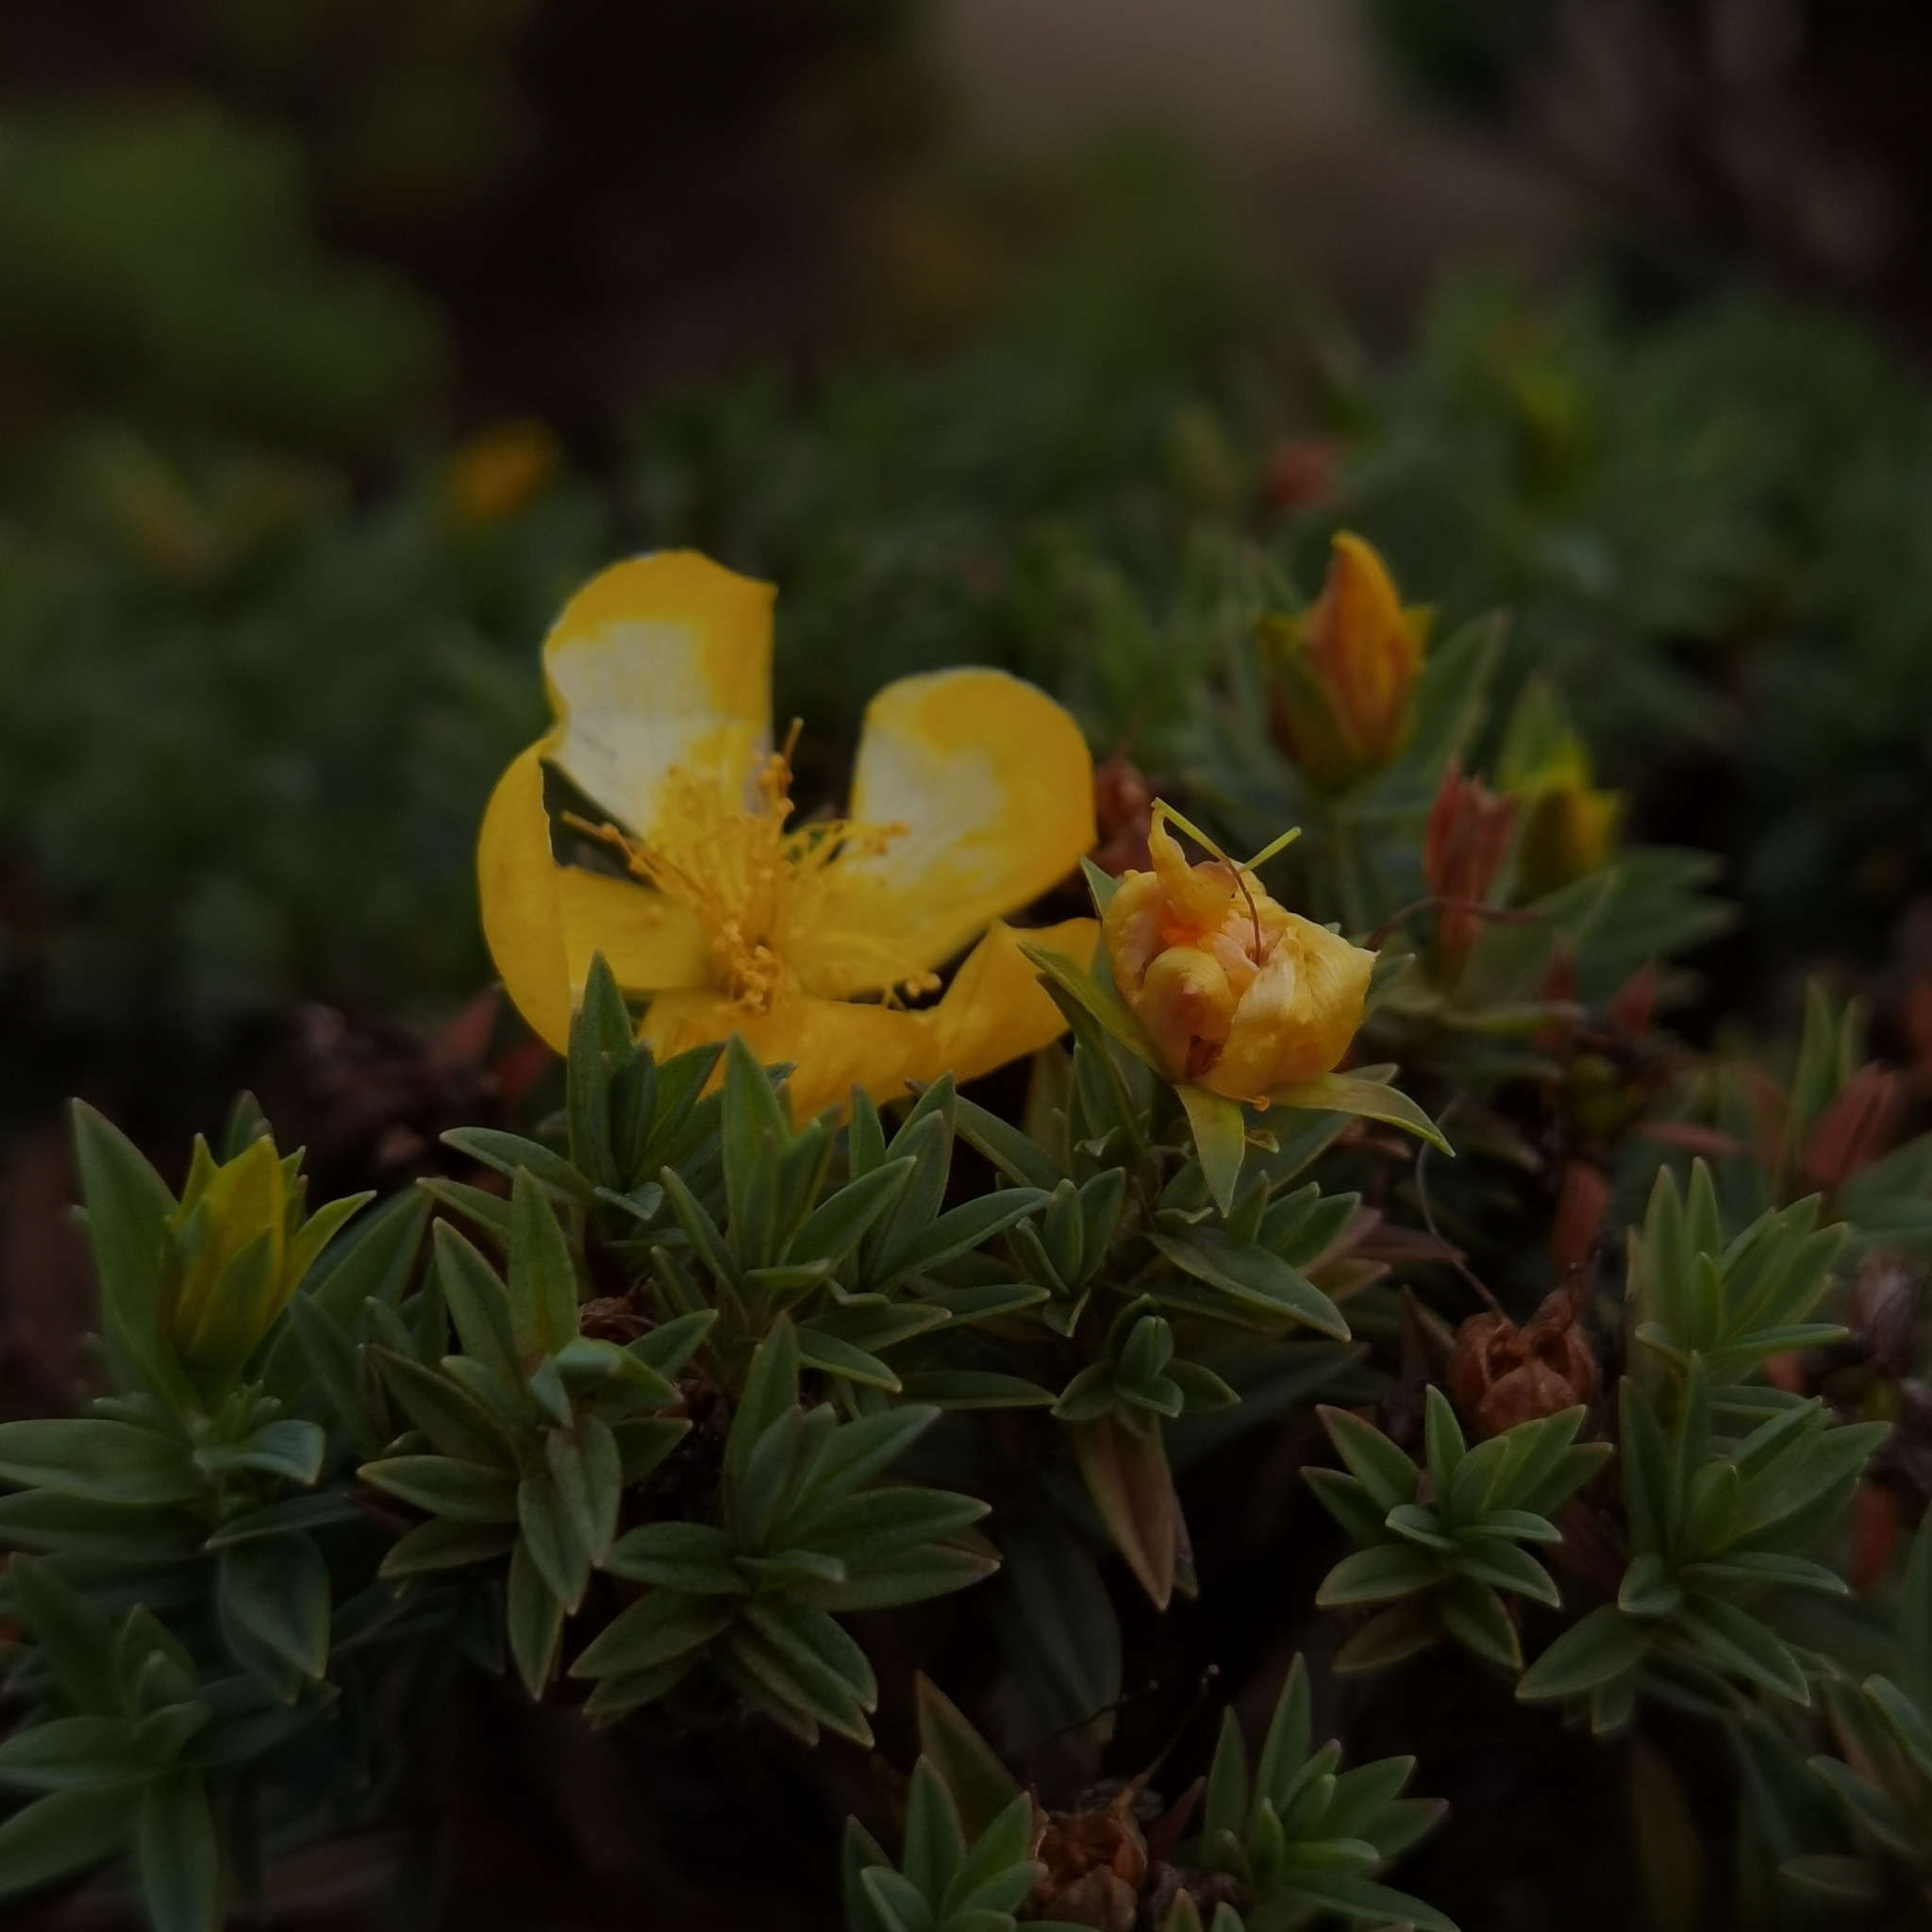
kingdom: Plantae
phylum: Tracheophyta
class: Magnoliopsida
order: Malpighiales
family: Hypericaceae
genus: Hypericum
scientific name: Hypericum irazuense
